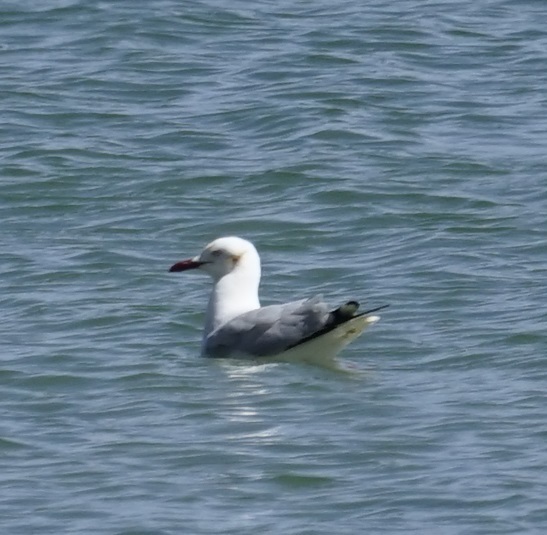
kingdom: Animalia
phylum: Chordata
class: Aves
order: Charadriiformes
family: Laridae
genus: Chroicocephalus
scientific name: Chroicocephalus novaehollandiae
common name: Silver gull
